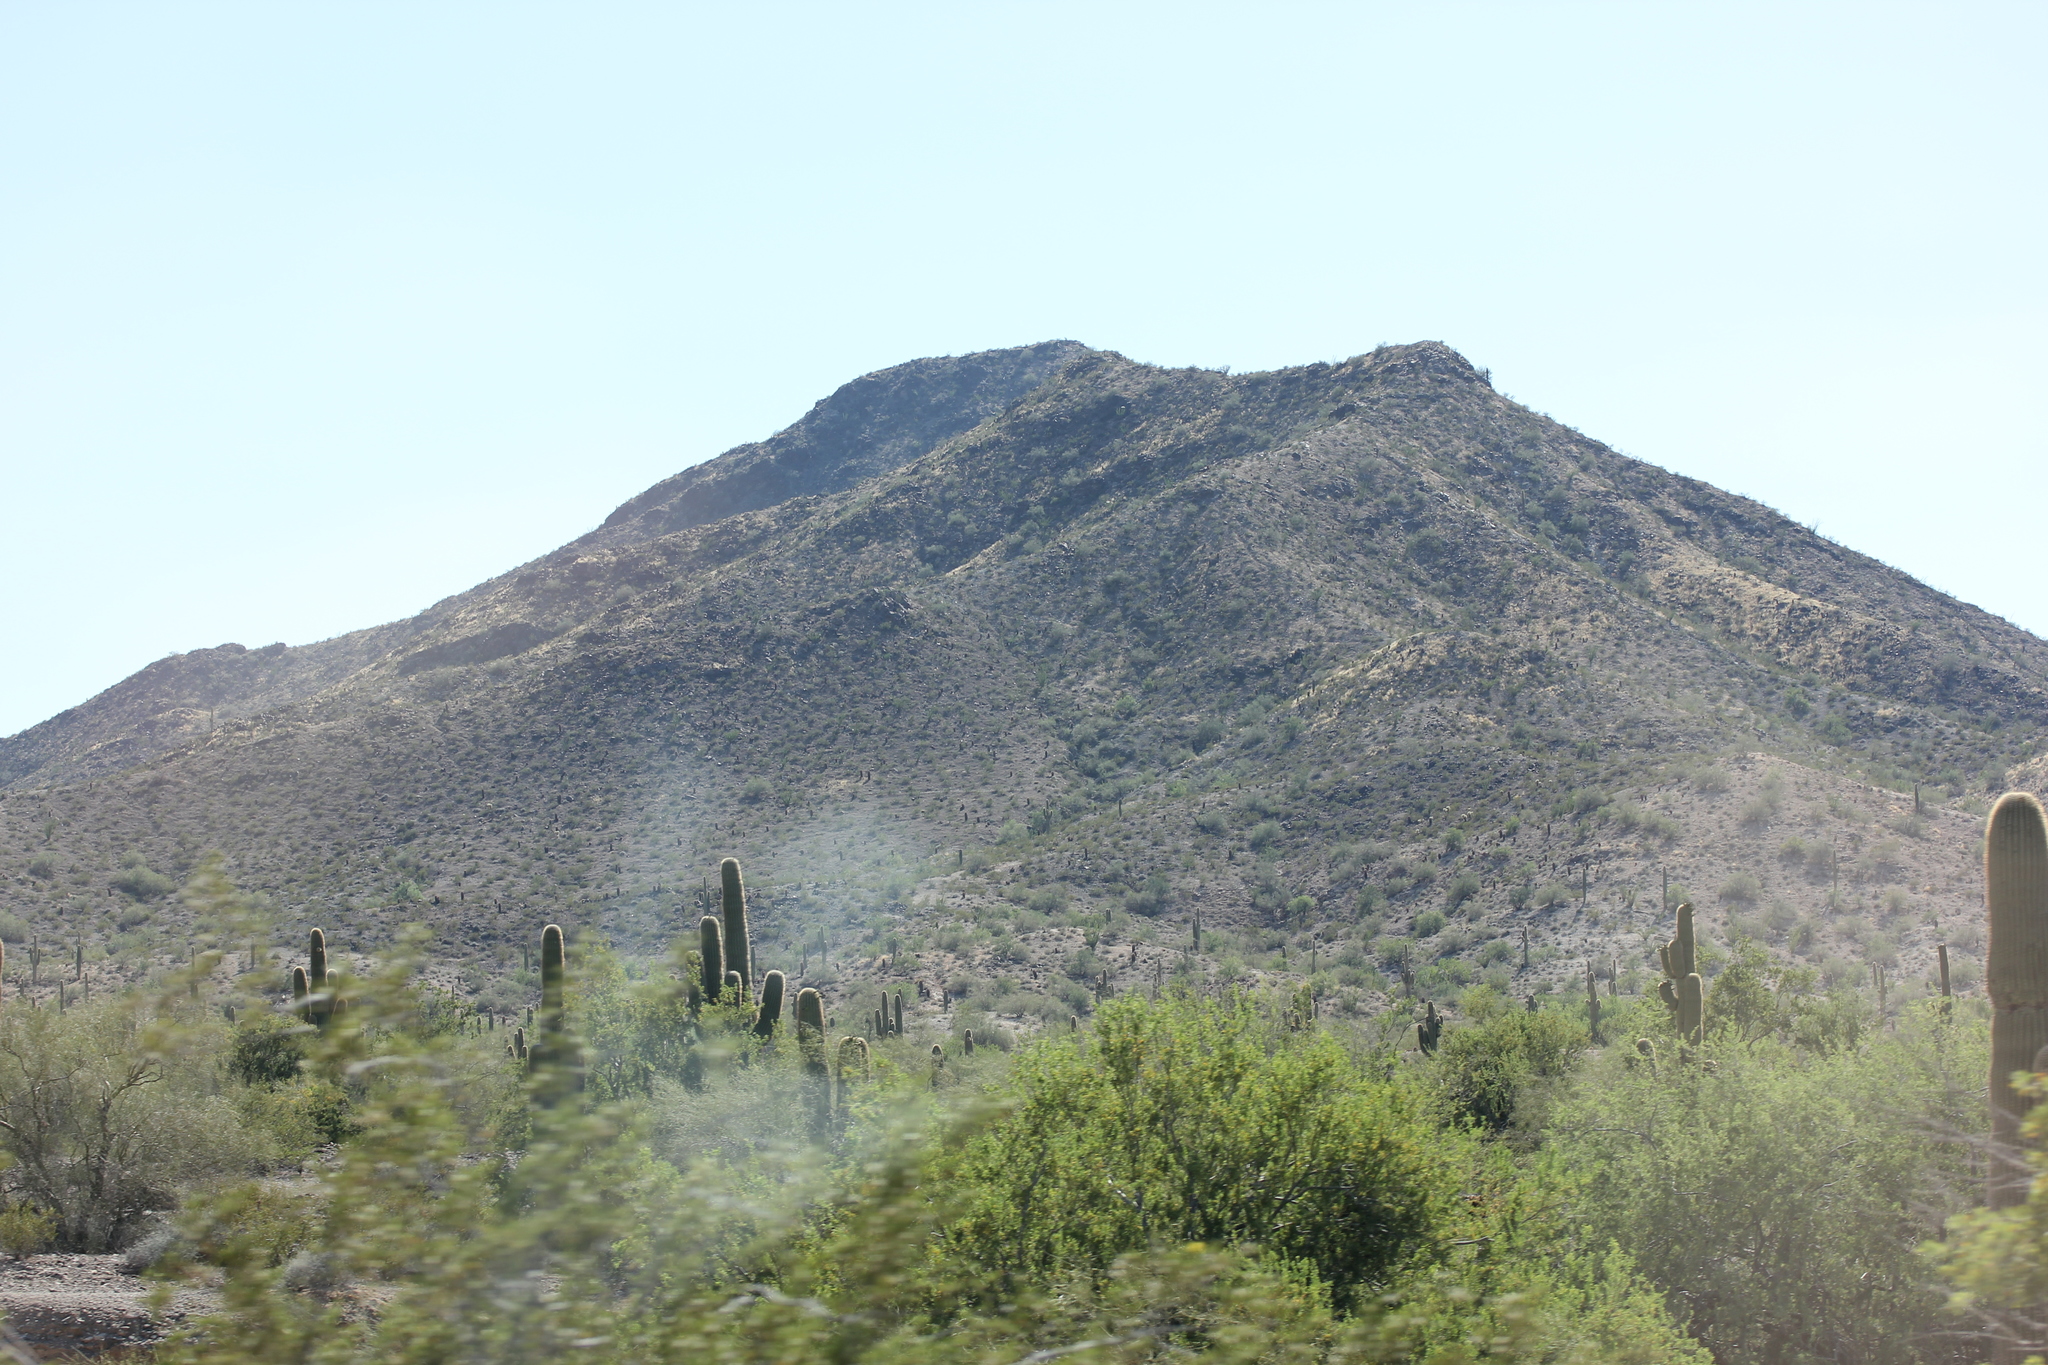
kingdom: Plantae
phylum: Tracheophyta
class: Magnoliopsida
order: Caryophyllales
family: Cactaceae
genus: Carnegiea
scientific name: Carnegiea gigantea
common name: Saguaro
